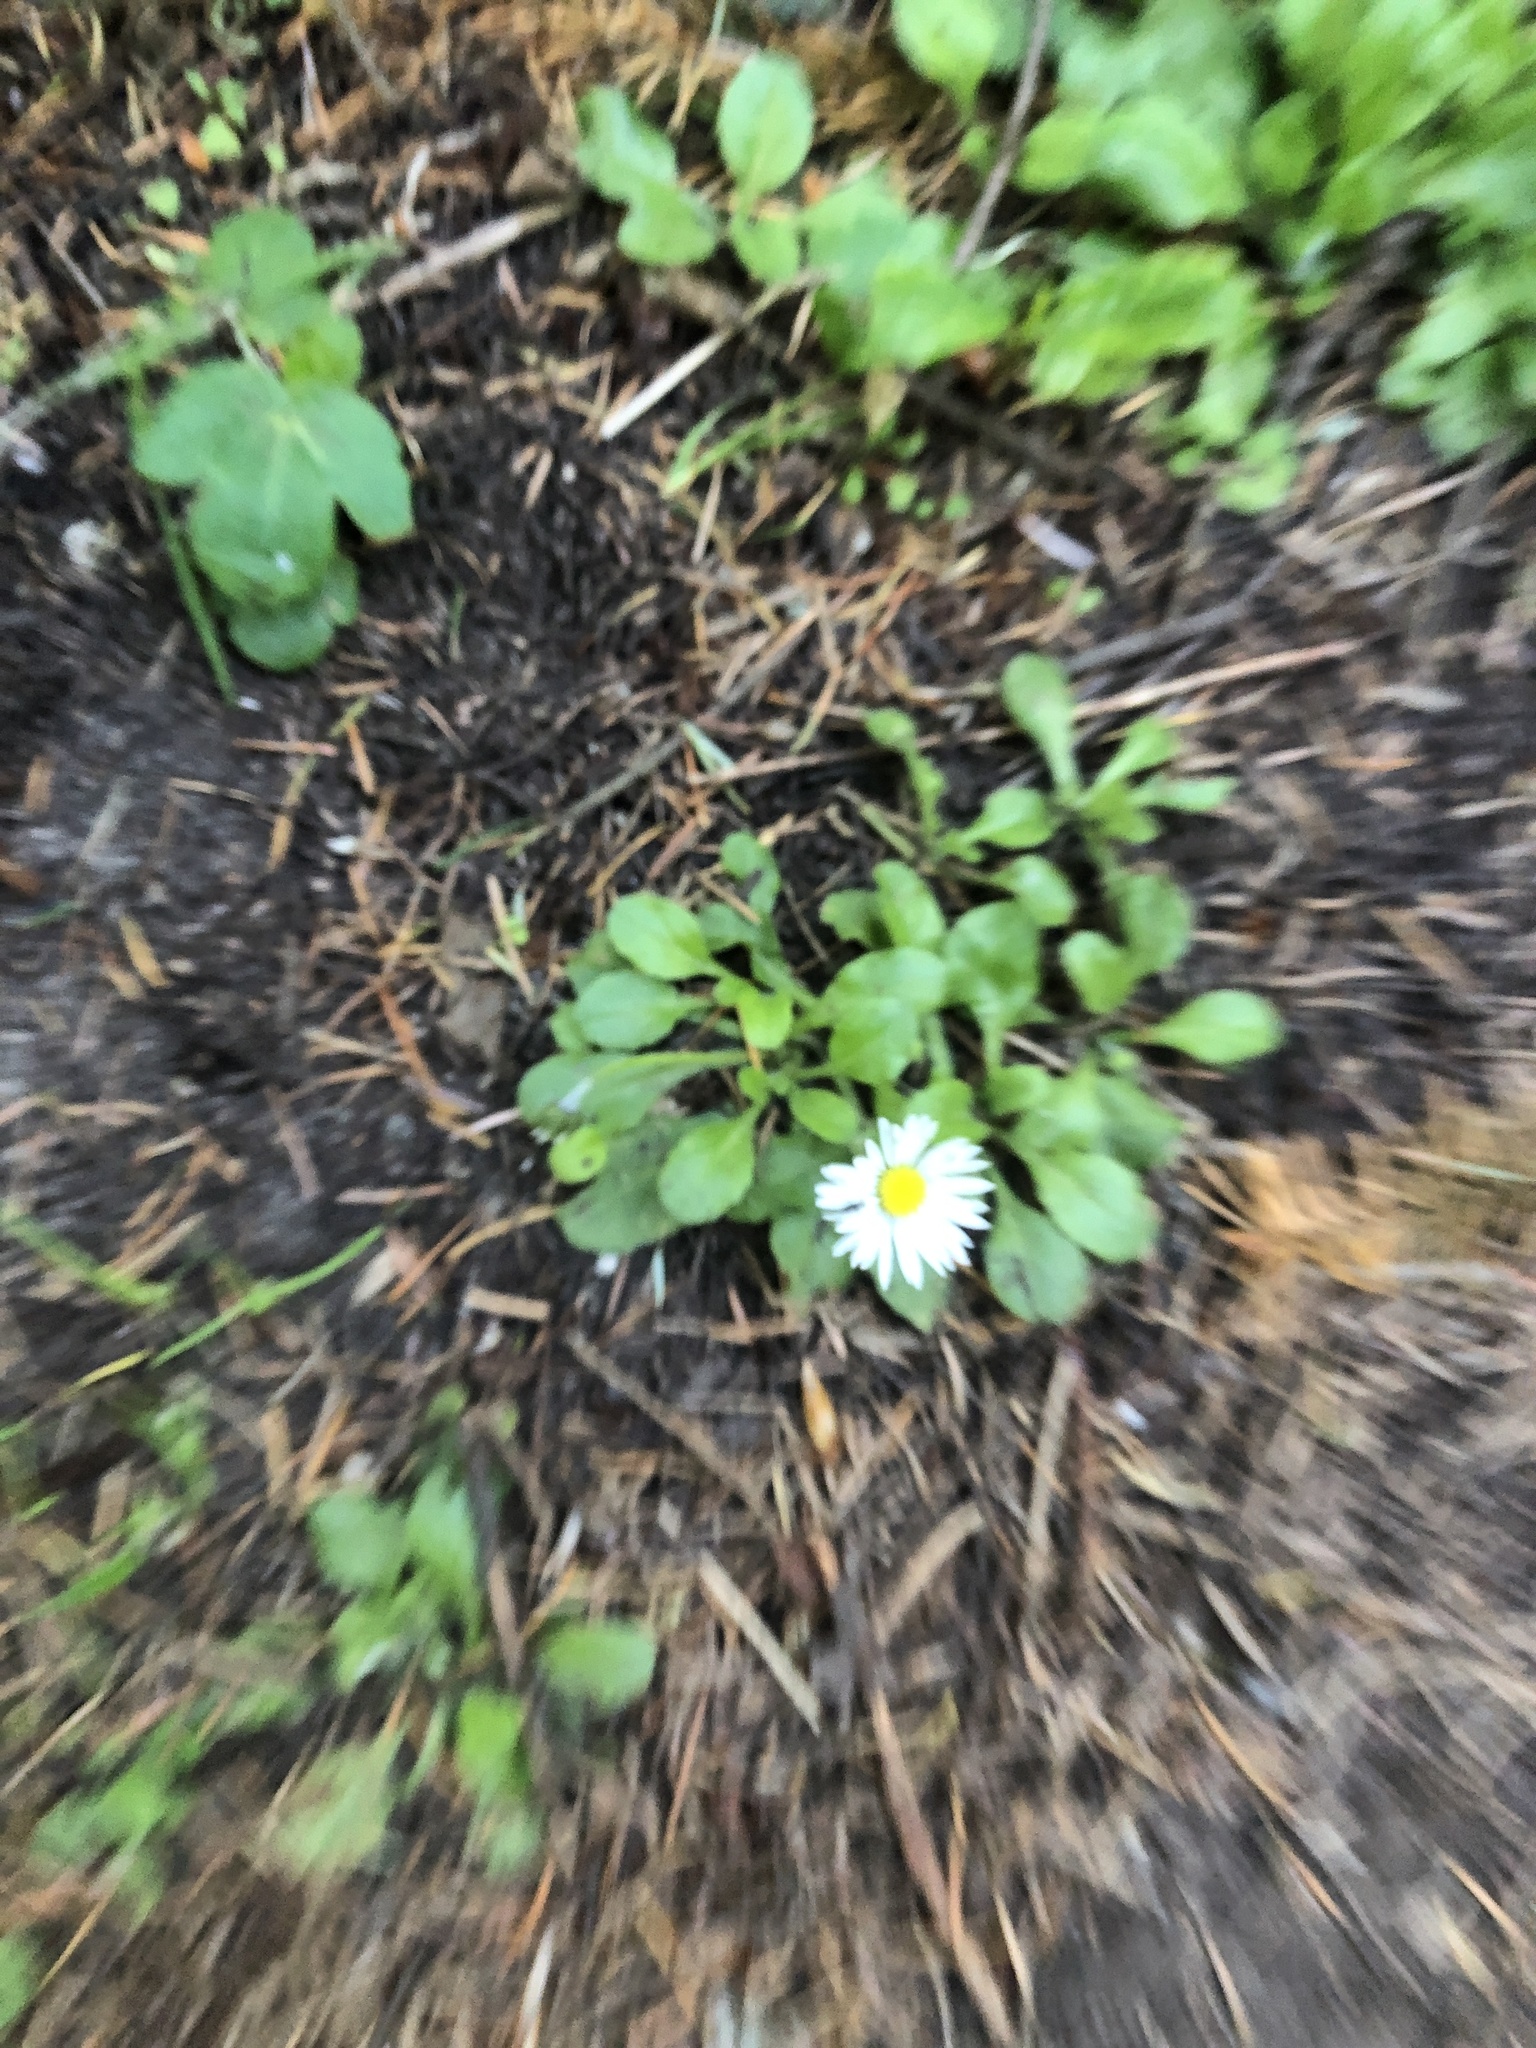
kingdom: Plantae
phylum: Tracheophyta
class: Magnoliopsida
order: Asterales
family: Asteraceae
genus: Bellis
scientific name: Bellis perennis
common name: Lawndaisy
